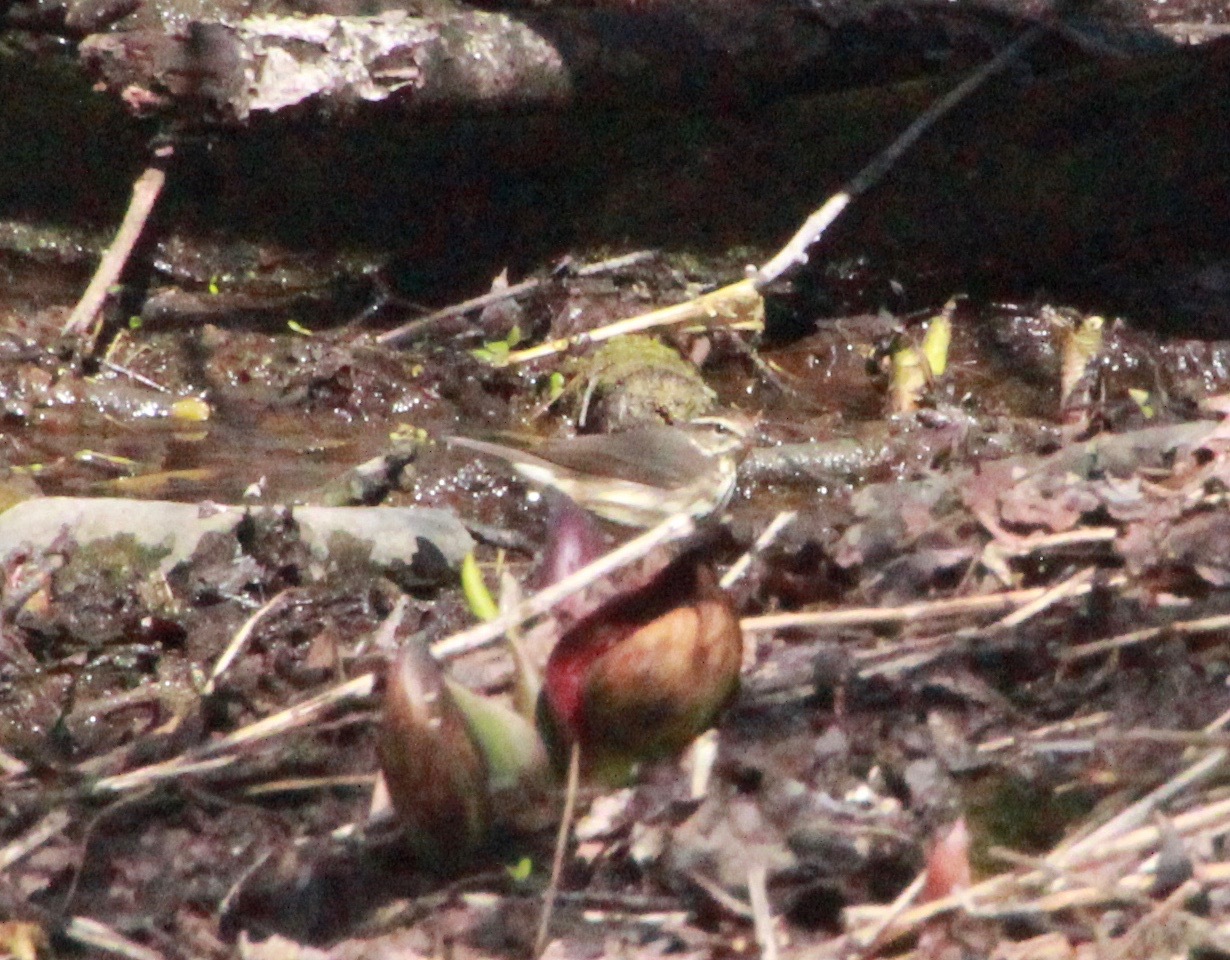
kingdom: Animalia
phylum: Chordata
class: Aves
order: Passeriformes
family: Parulidae
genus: Parkesia
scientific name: Parkesia motacilla
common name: Louisiana waterthrush
